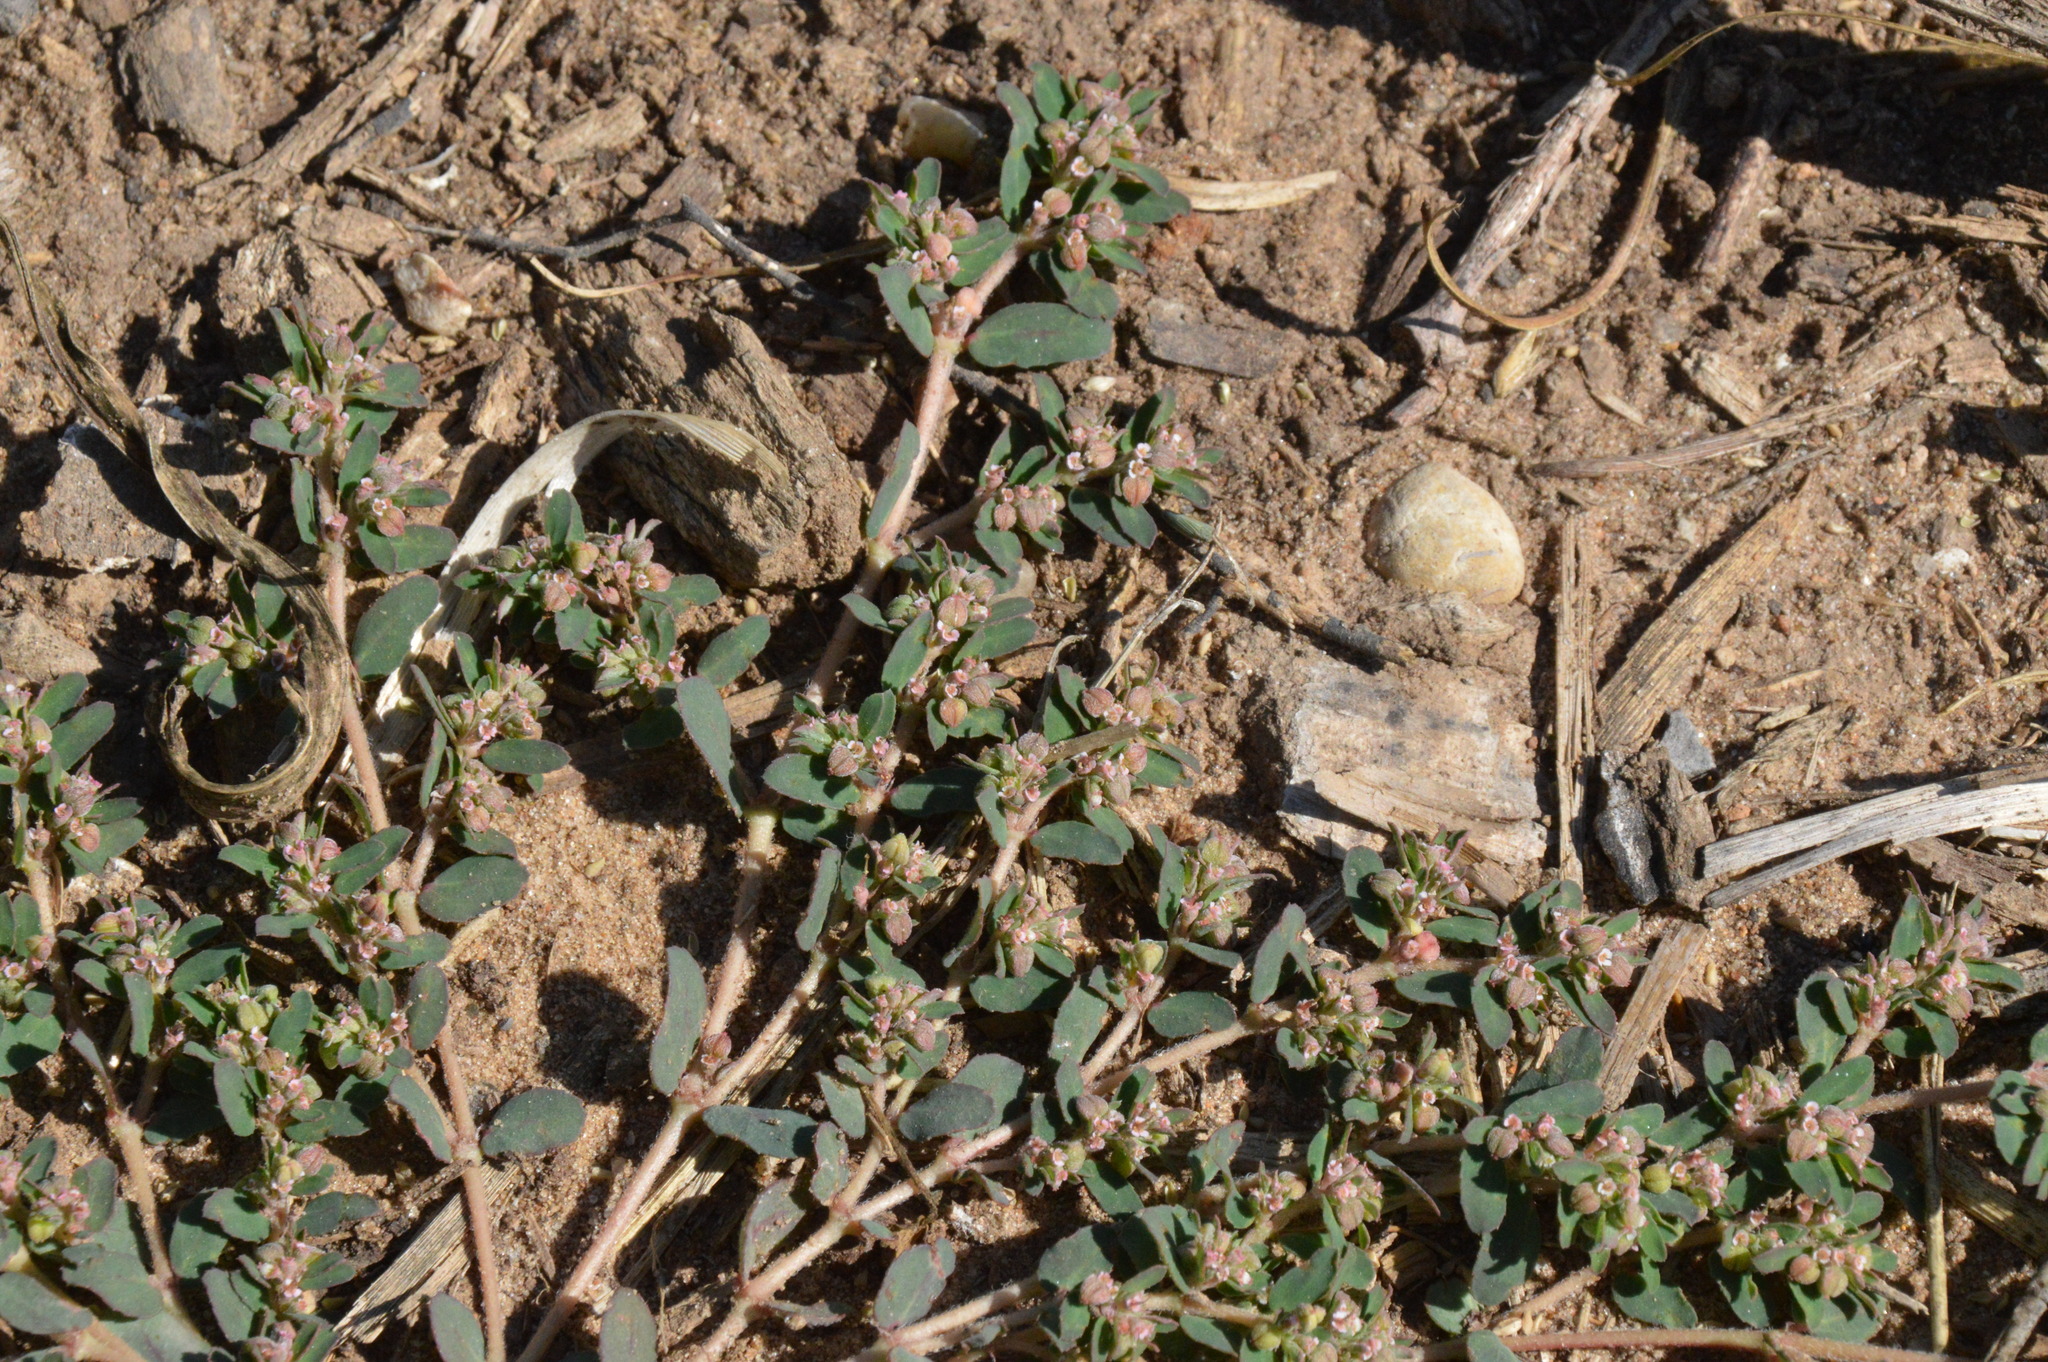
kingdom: Plantae
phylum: Tracheophyta
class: Magnoliopsida
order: Malpighiales
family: Euphorbiaceae
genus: Euphorbia
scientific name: Euphorbia maculata
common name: Spotted spurge
